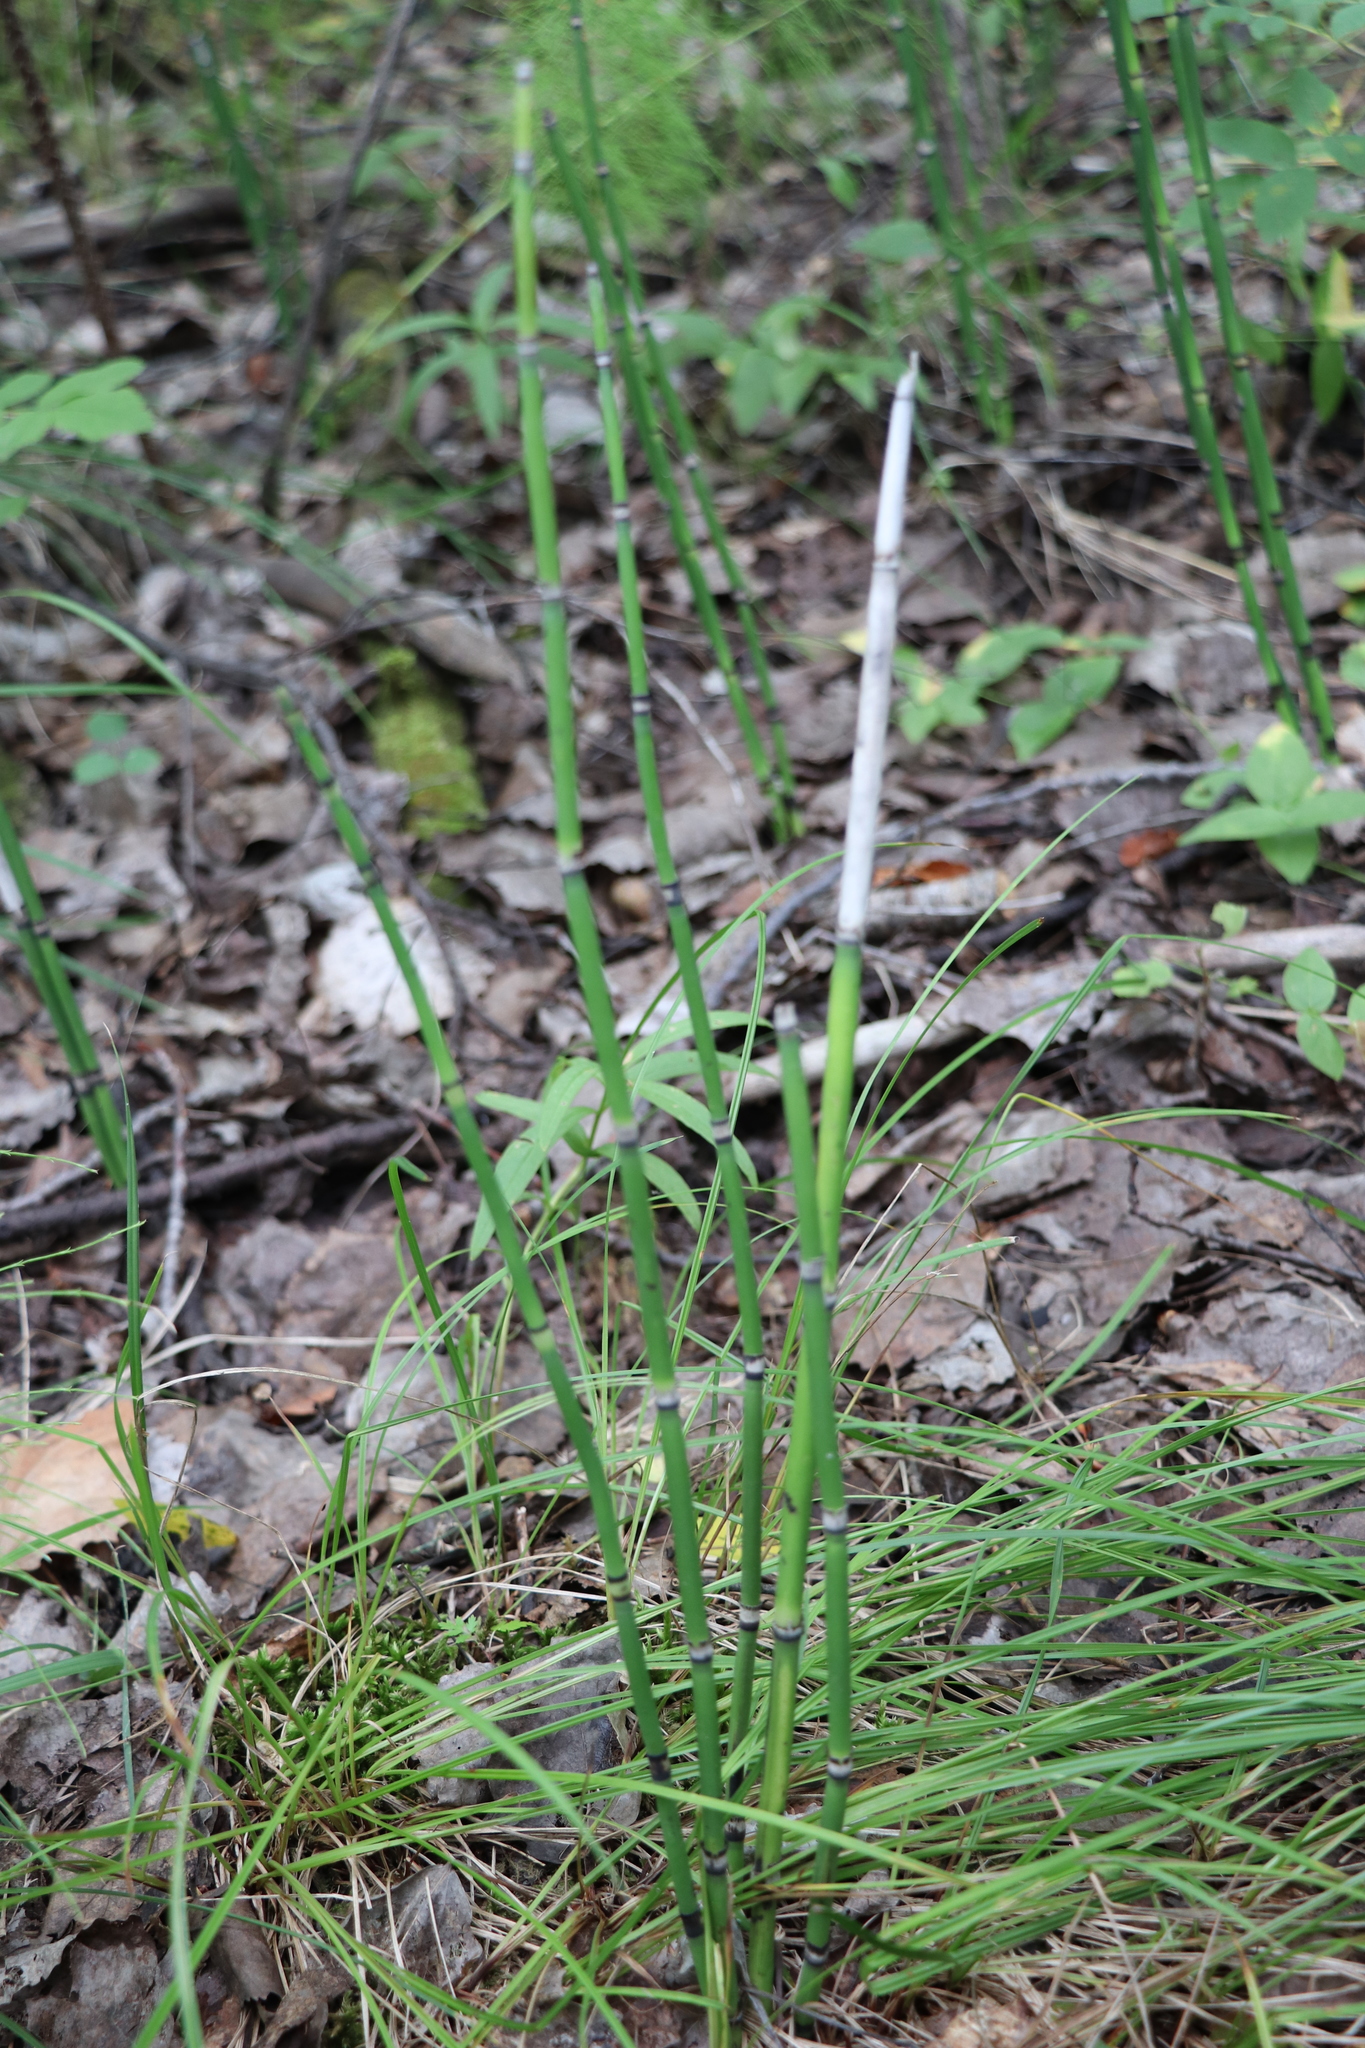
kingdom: Plantae
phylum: Tracheophyta
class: Polypodiopsida
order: Equisetales
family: Equisetaceae
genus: Equisetum
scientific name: Equisetum hyemale
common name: Rough horsetail
